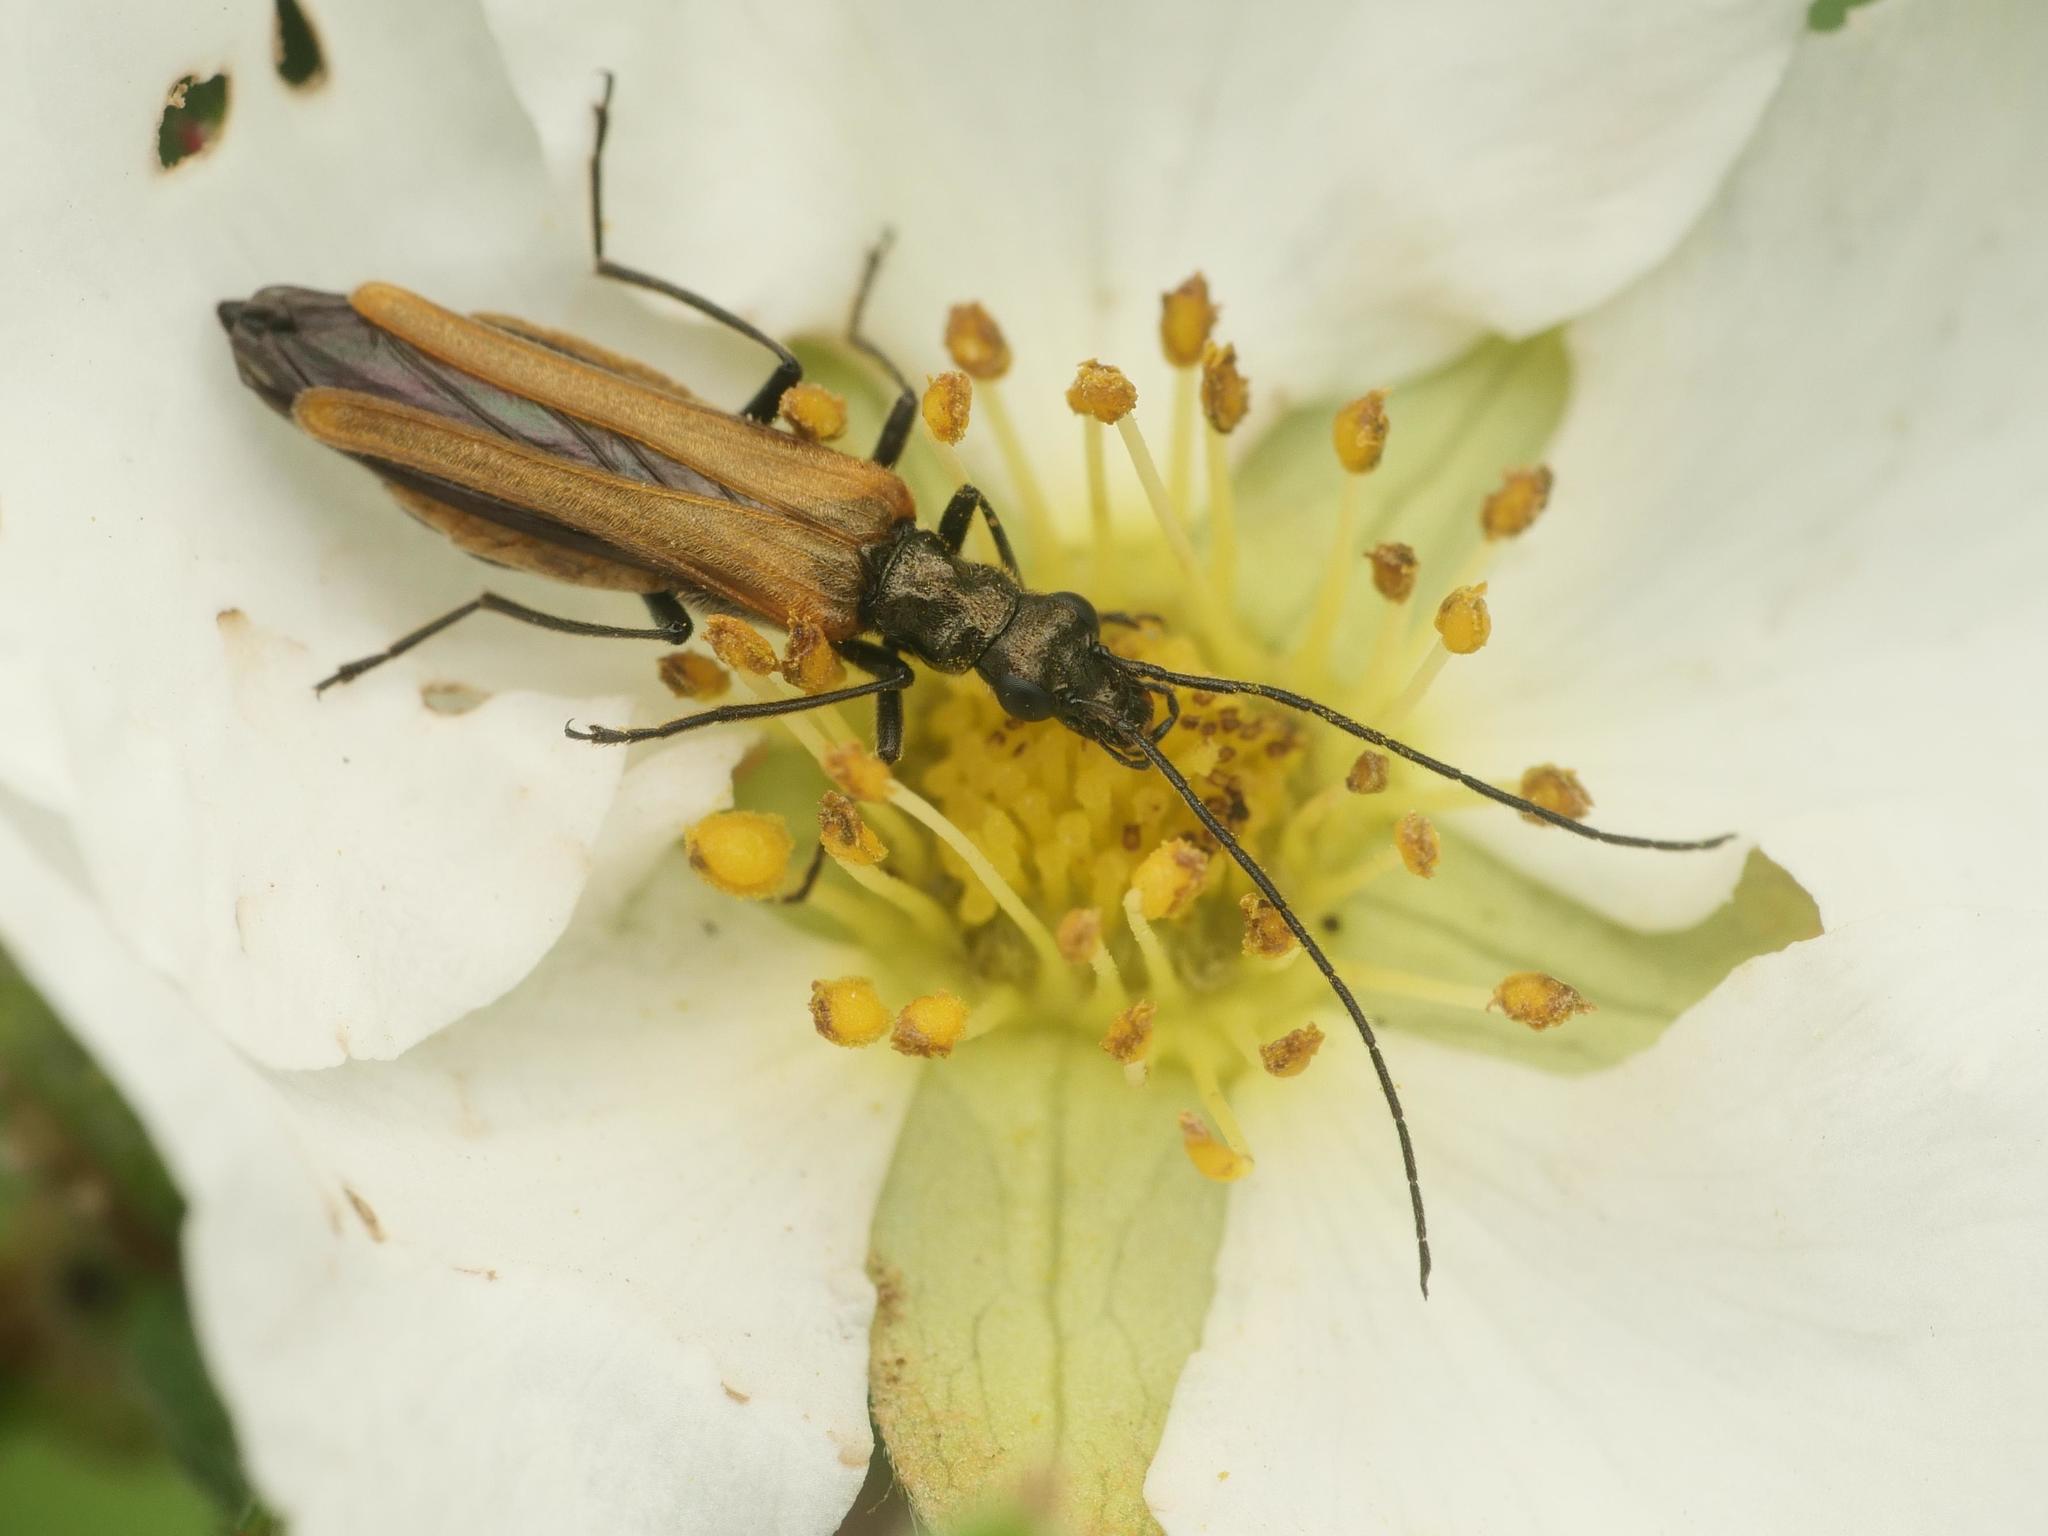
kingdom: Animalia
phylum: Arthropoda
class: Insecta
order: Coleoptera
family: Oedemeridae
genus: Oedemera
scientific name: Oedemera femorata
